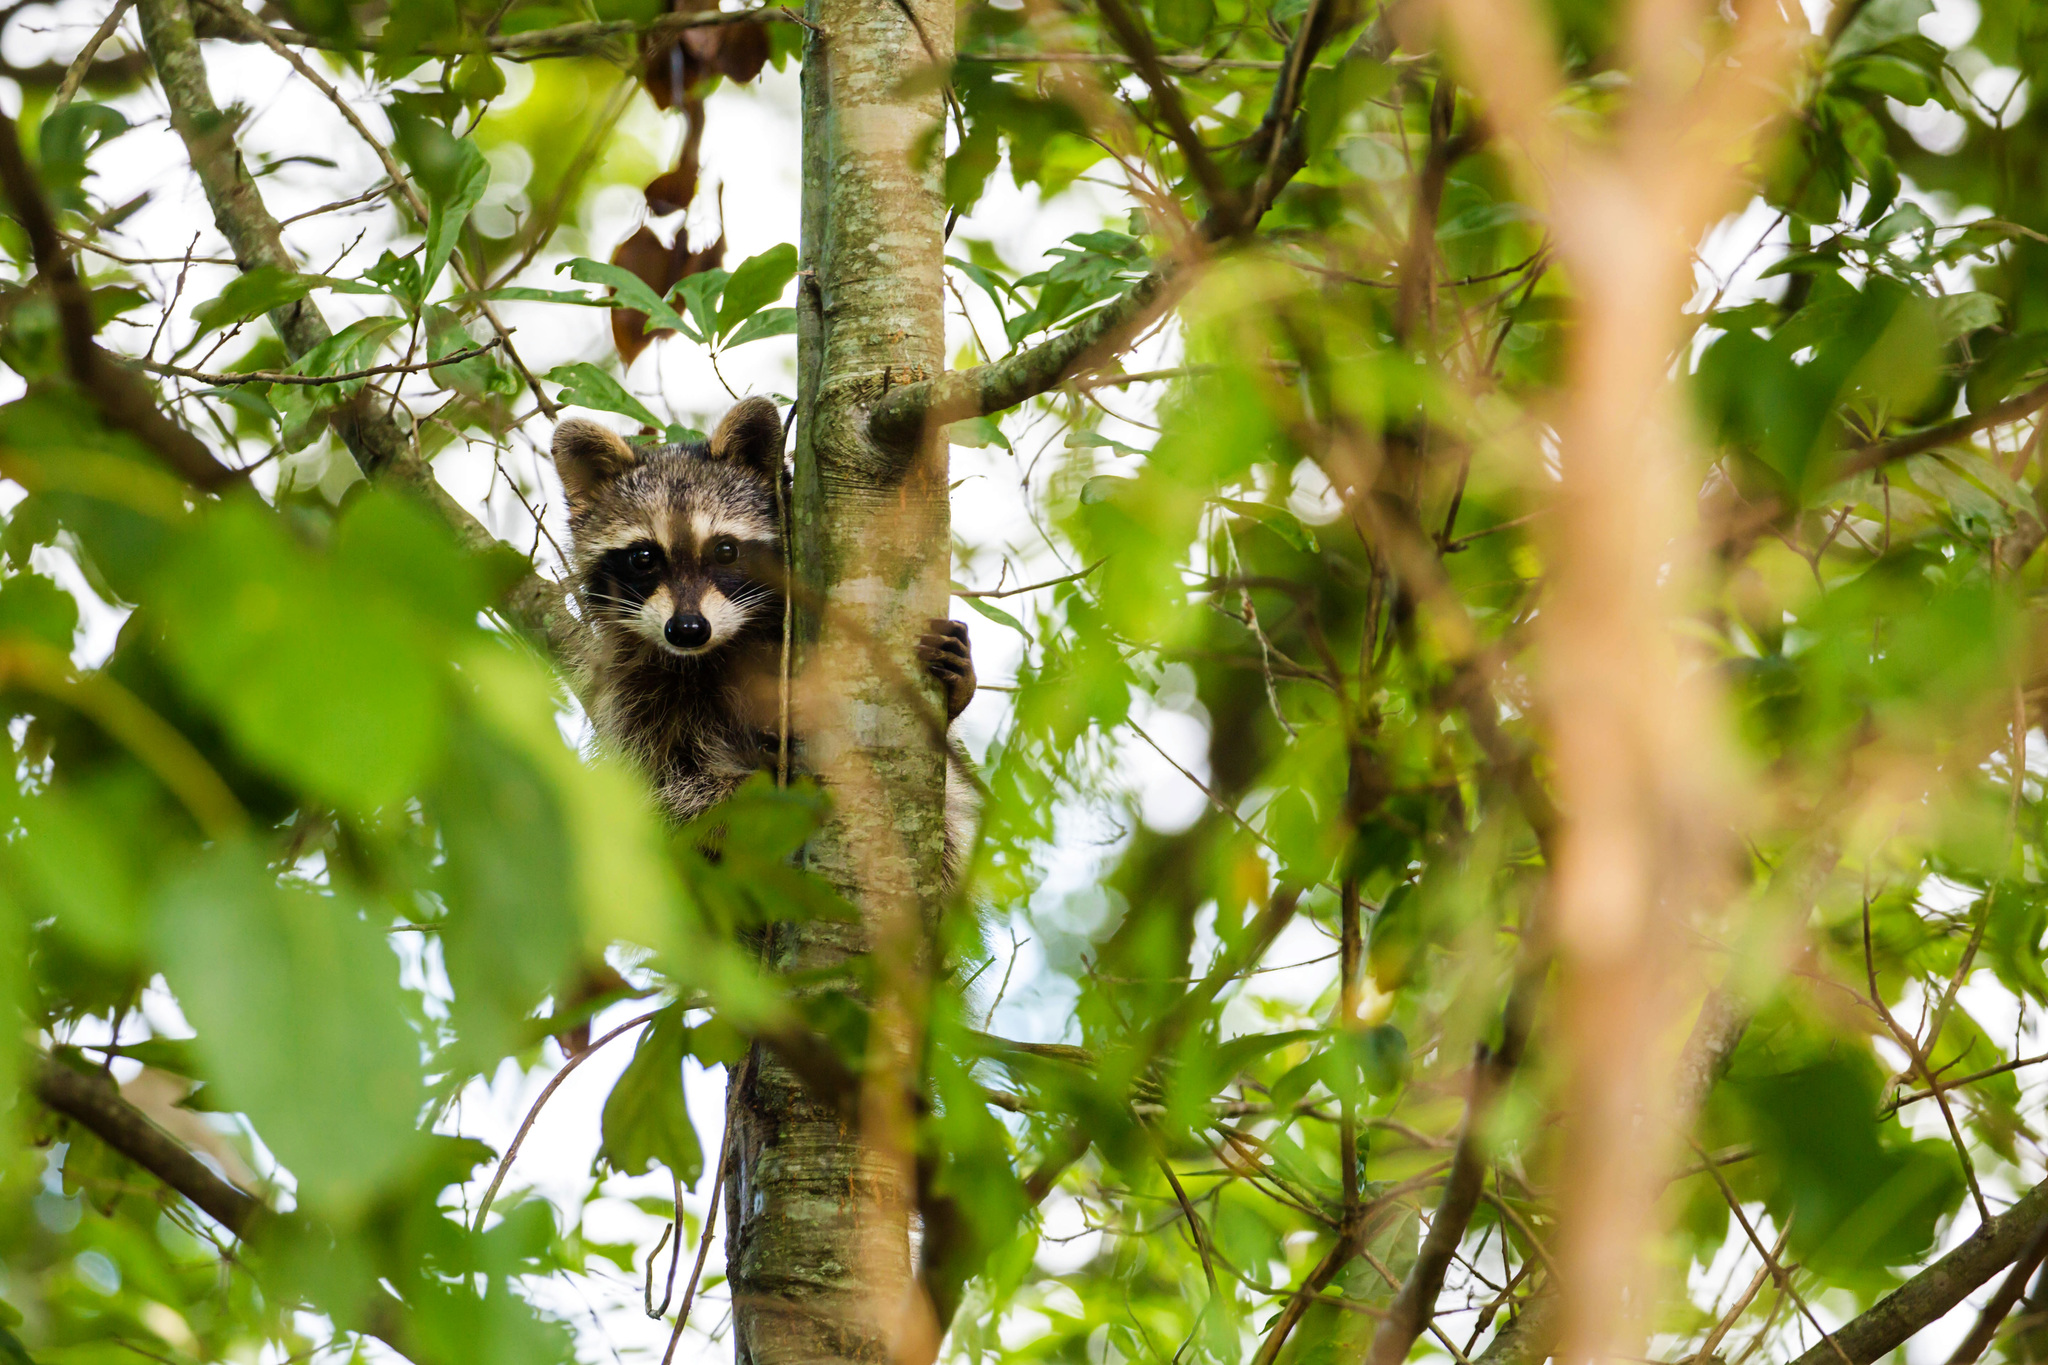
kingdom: Animalia
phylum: Chordata
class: Mammalia
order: Carnivora
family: Procyonidae
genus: Procyon
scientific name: Procyon lotor
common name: Raccoon
